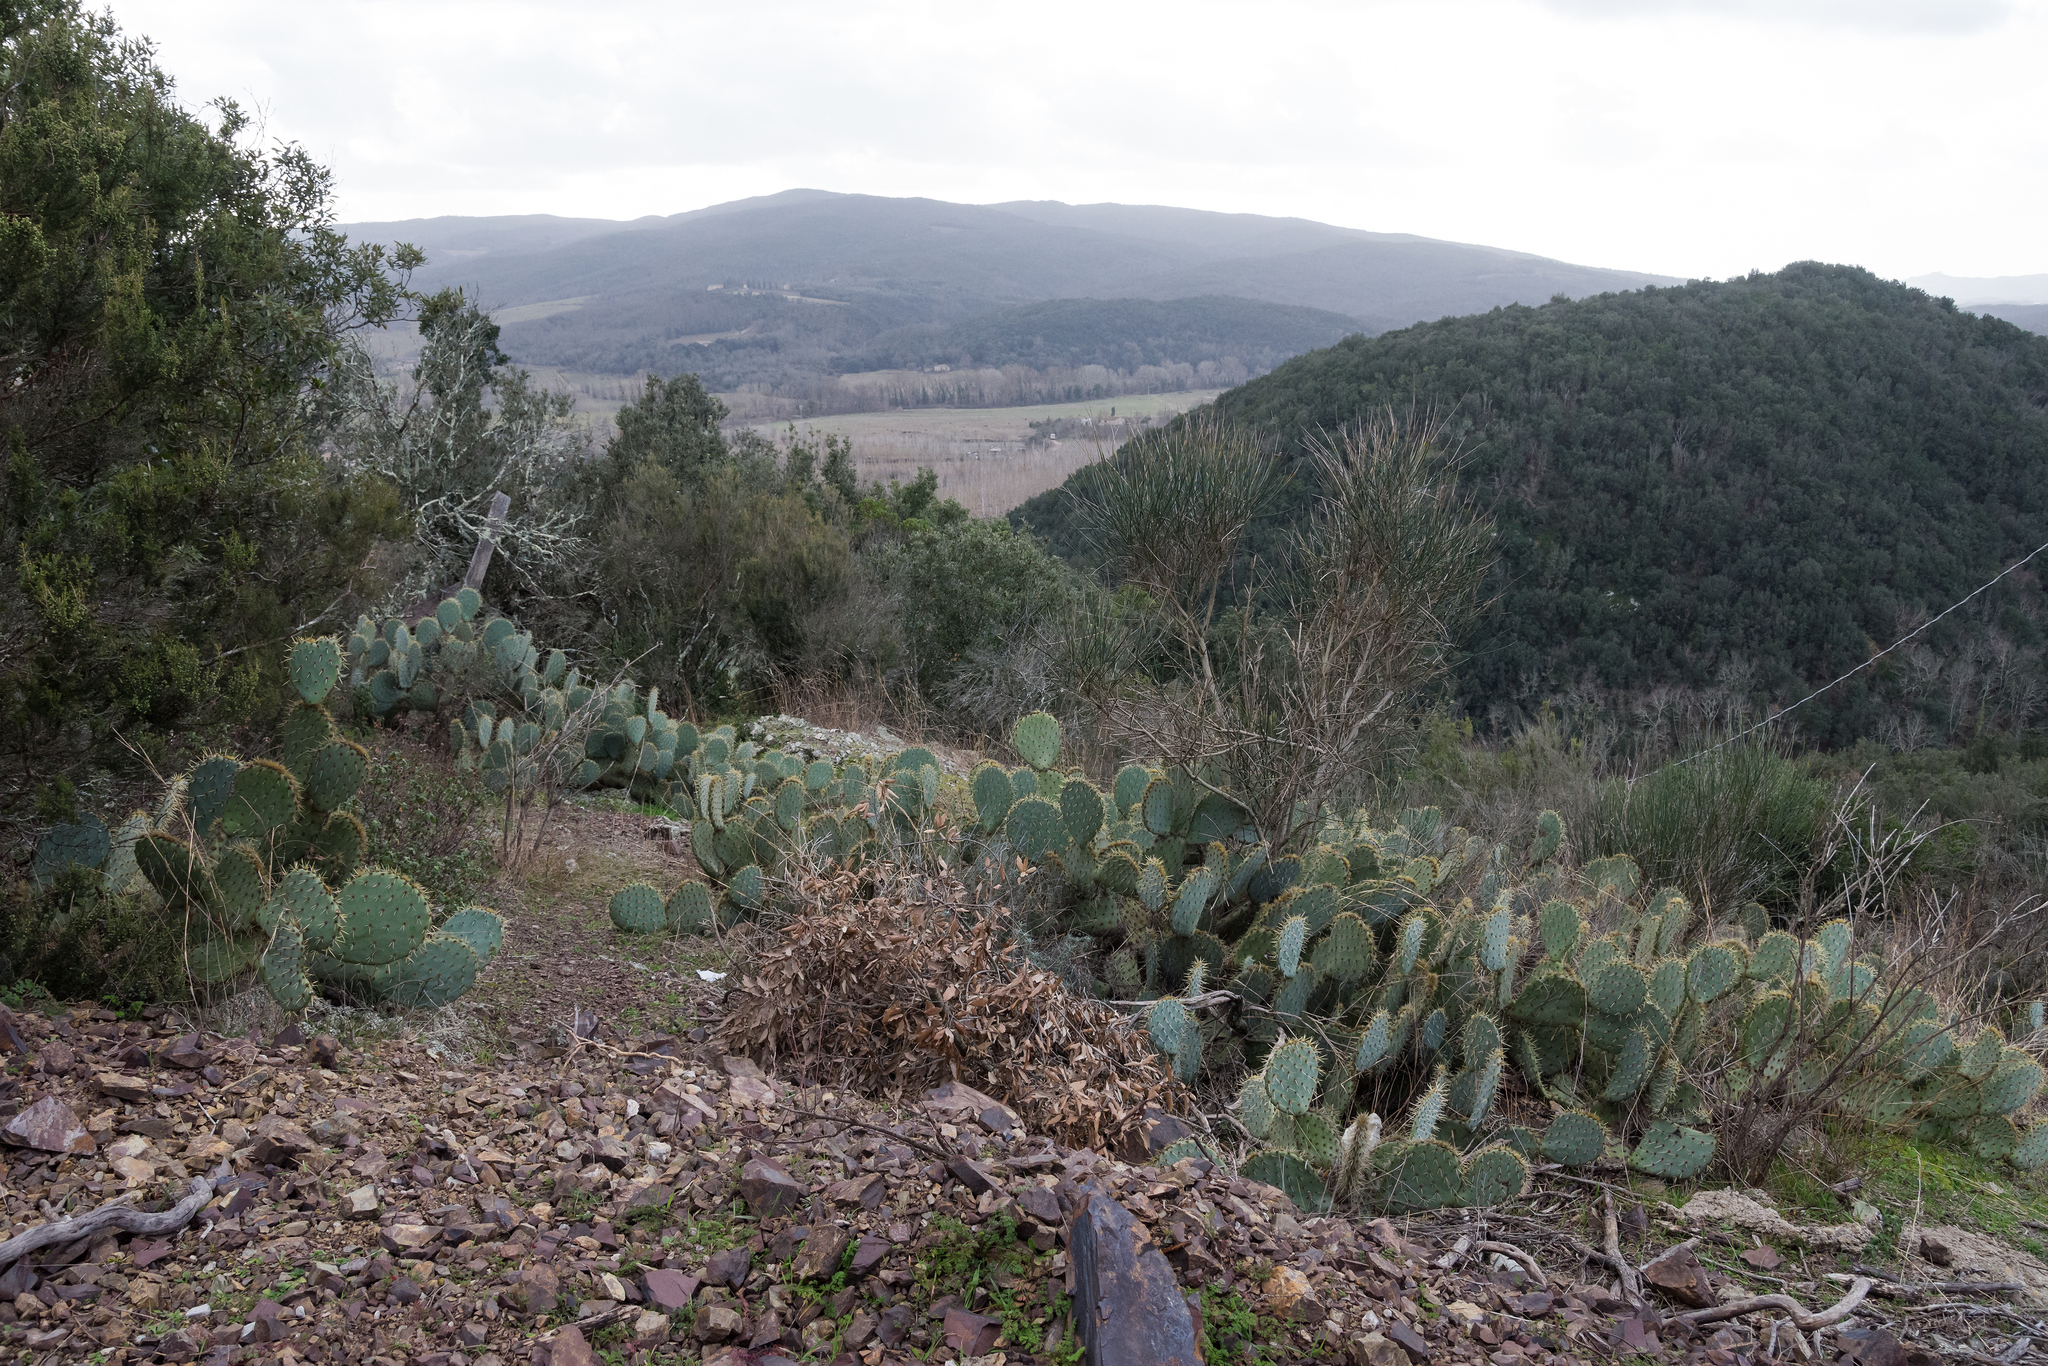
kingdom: Plantae
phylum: Tracheophyta
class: Magnoliopsida
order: Caryophyllales
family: Cactaceae
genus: Opuntia
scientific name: Opuntia orbiculata
